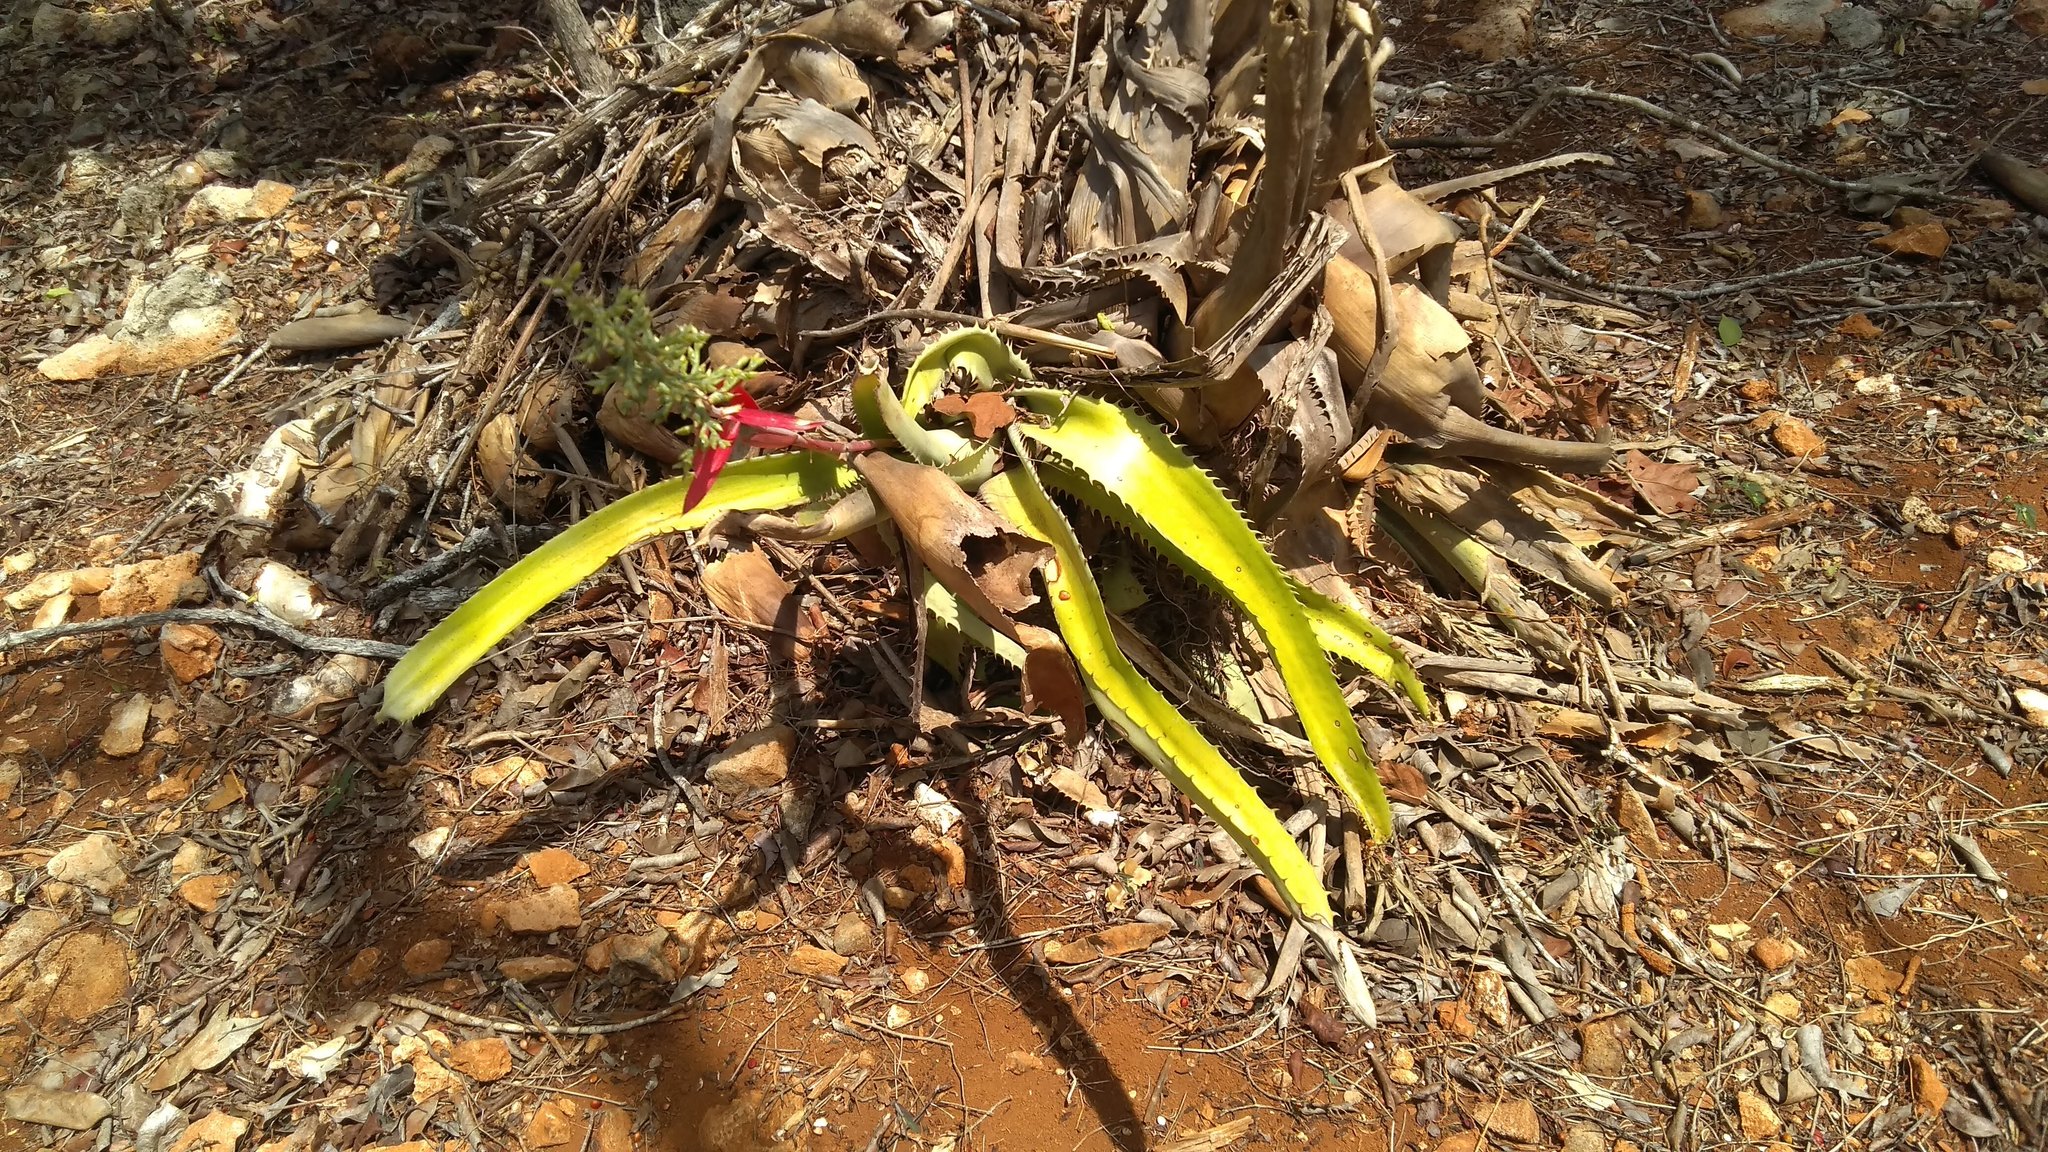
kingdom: Plantae
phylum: Tracheophyta
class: Liliopsida
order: Poales
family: Bromeliaceae
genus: Aechmea
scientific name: Aechmea bracteata
